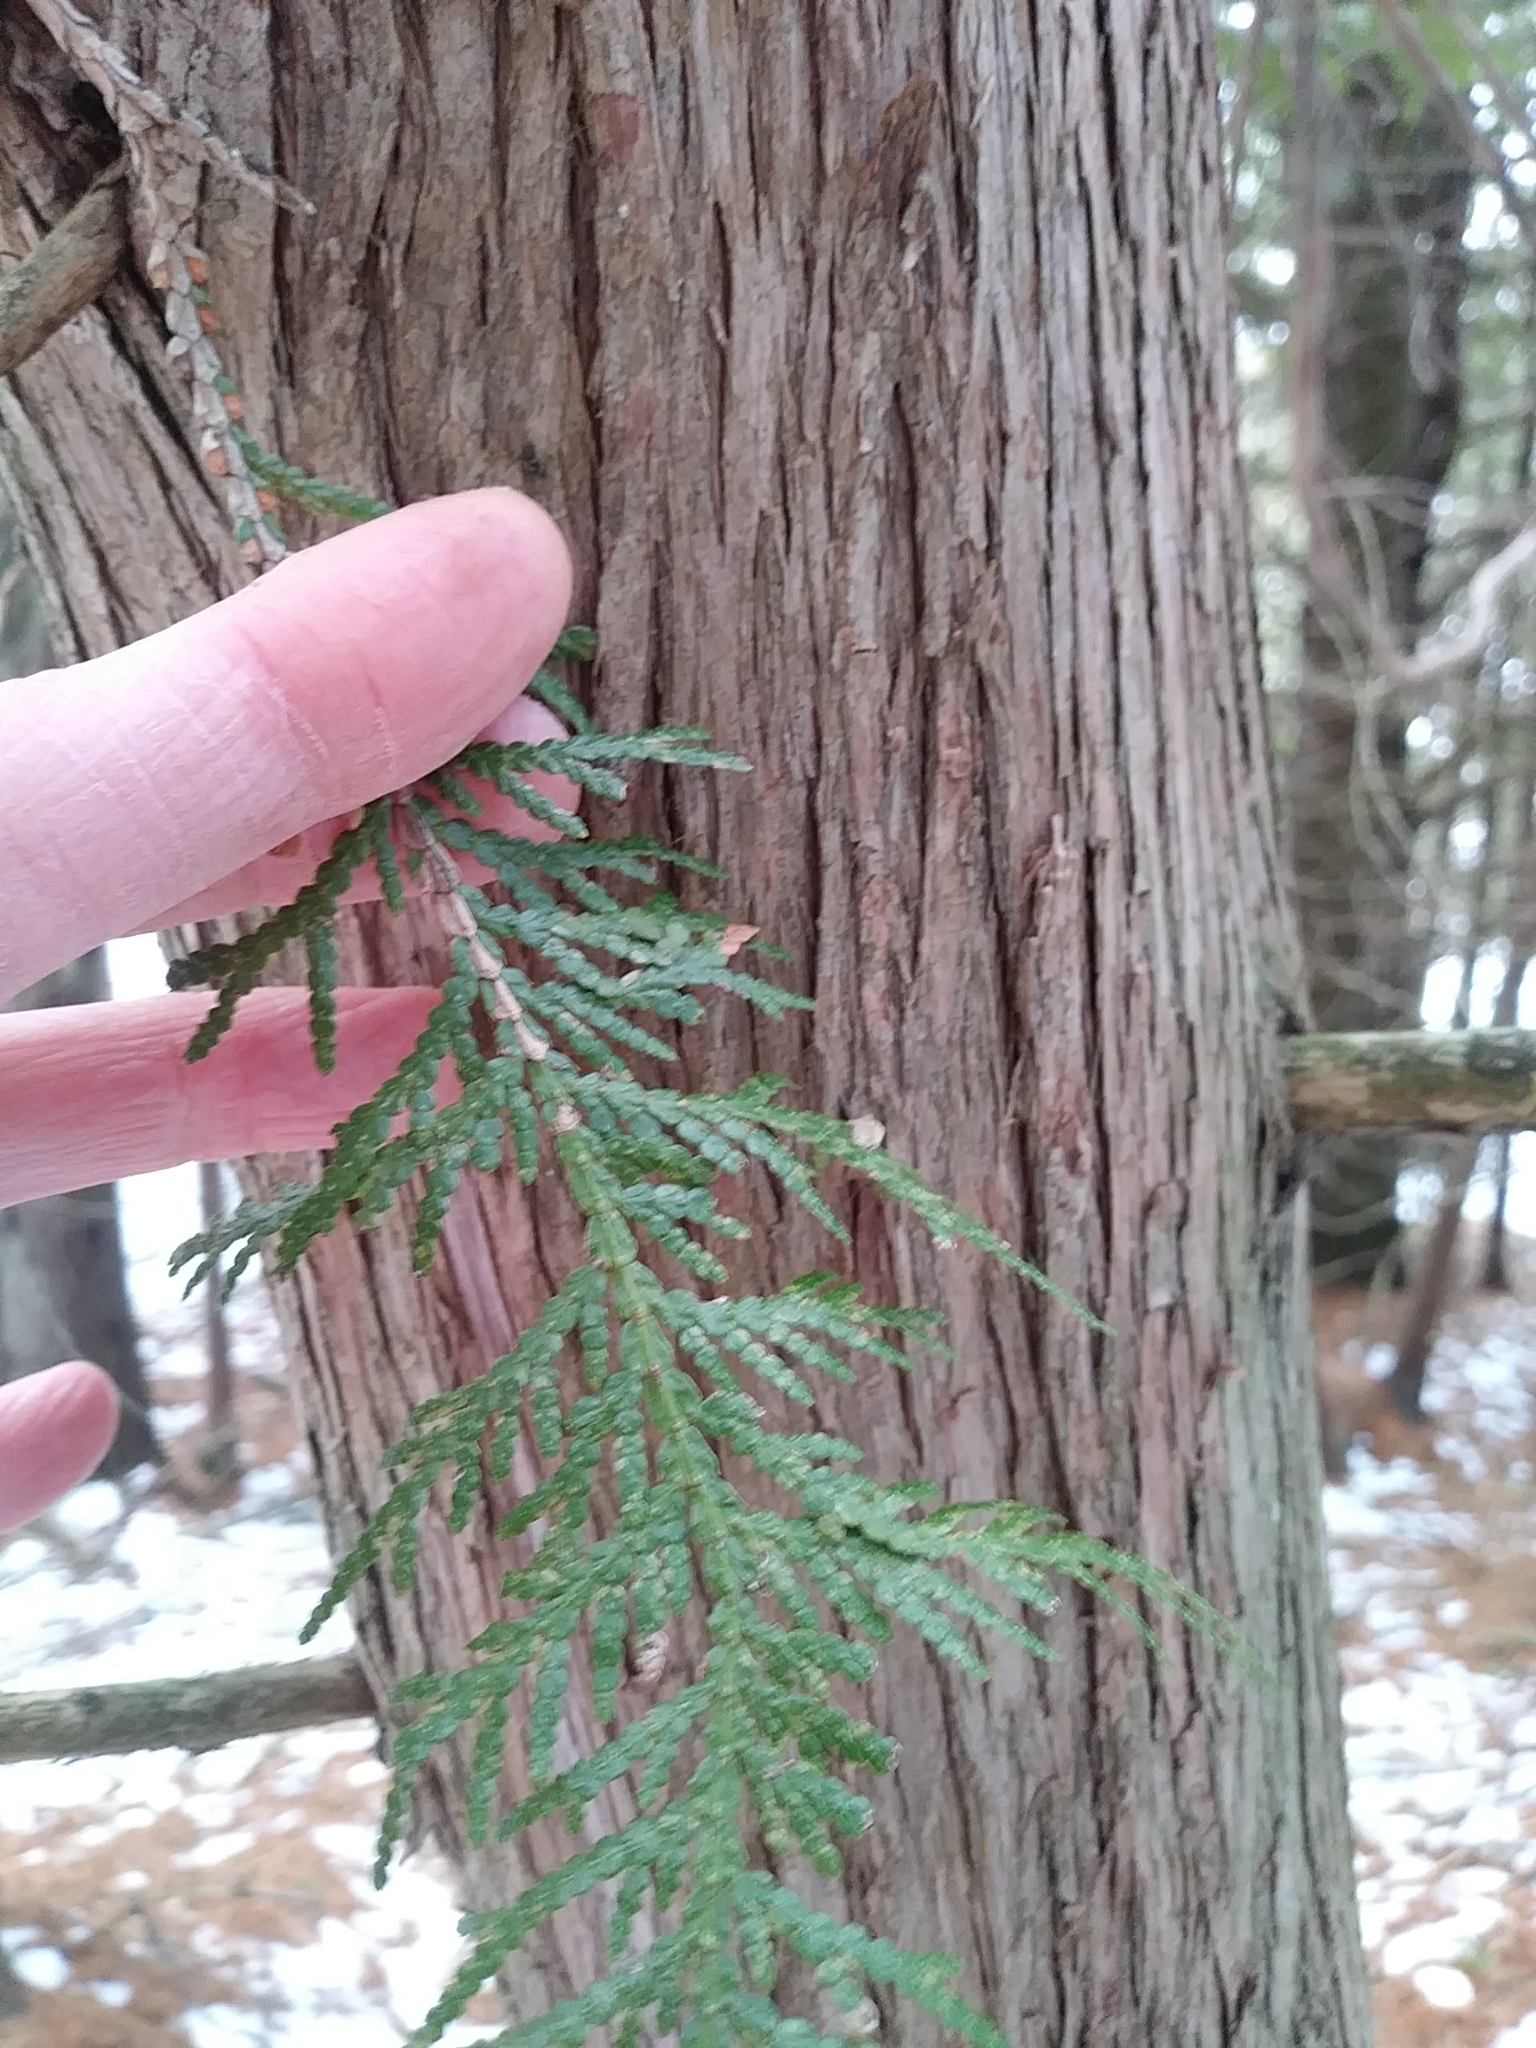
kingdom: Plantae
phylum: Tracheophyta
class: Pinopsida
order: Pinales
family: Cupressaceae
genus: Thuja
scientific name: Thuja occidentalis
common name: Northern white-cedar
